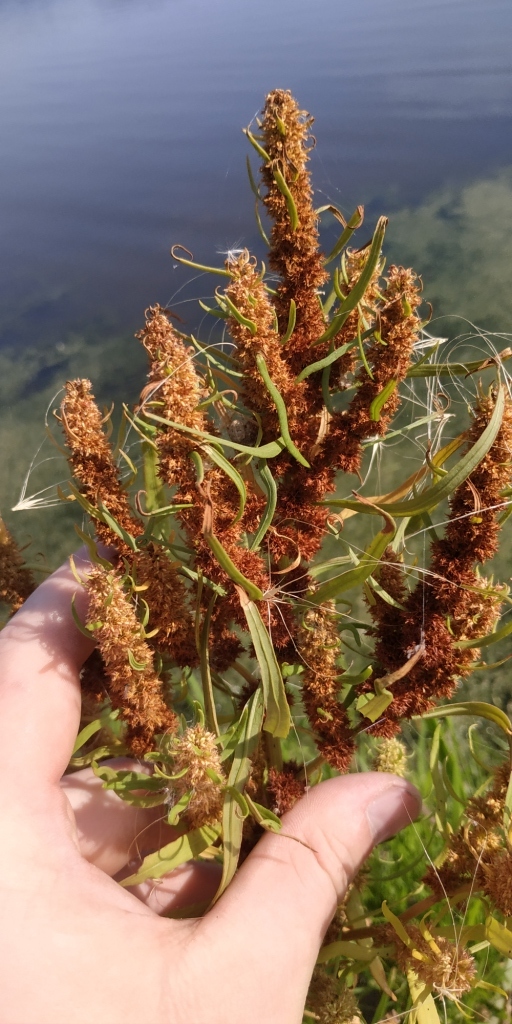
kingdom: Plantae
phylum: Tracheophyta
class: Magnoliopsida
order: Caryophyllales
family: Polygonaceae
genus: Rumex
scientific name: Rumex maritimus
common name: Golden dock
